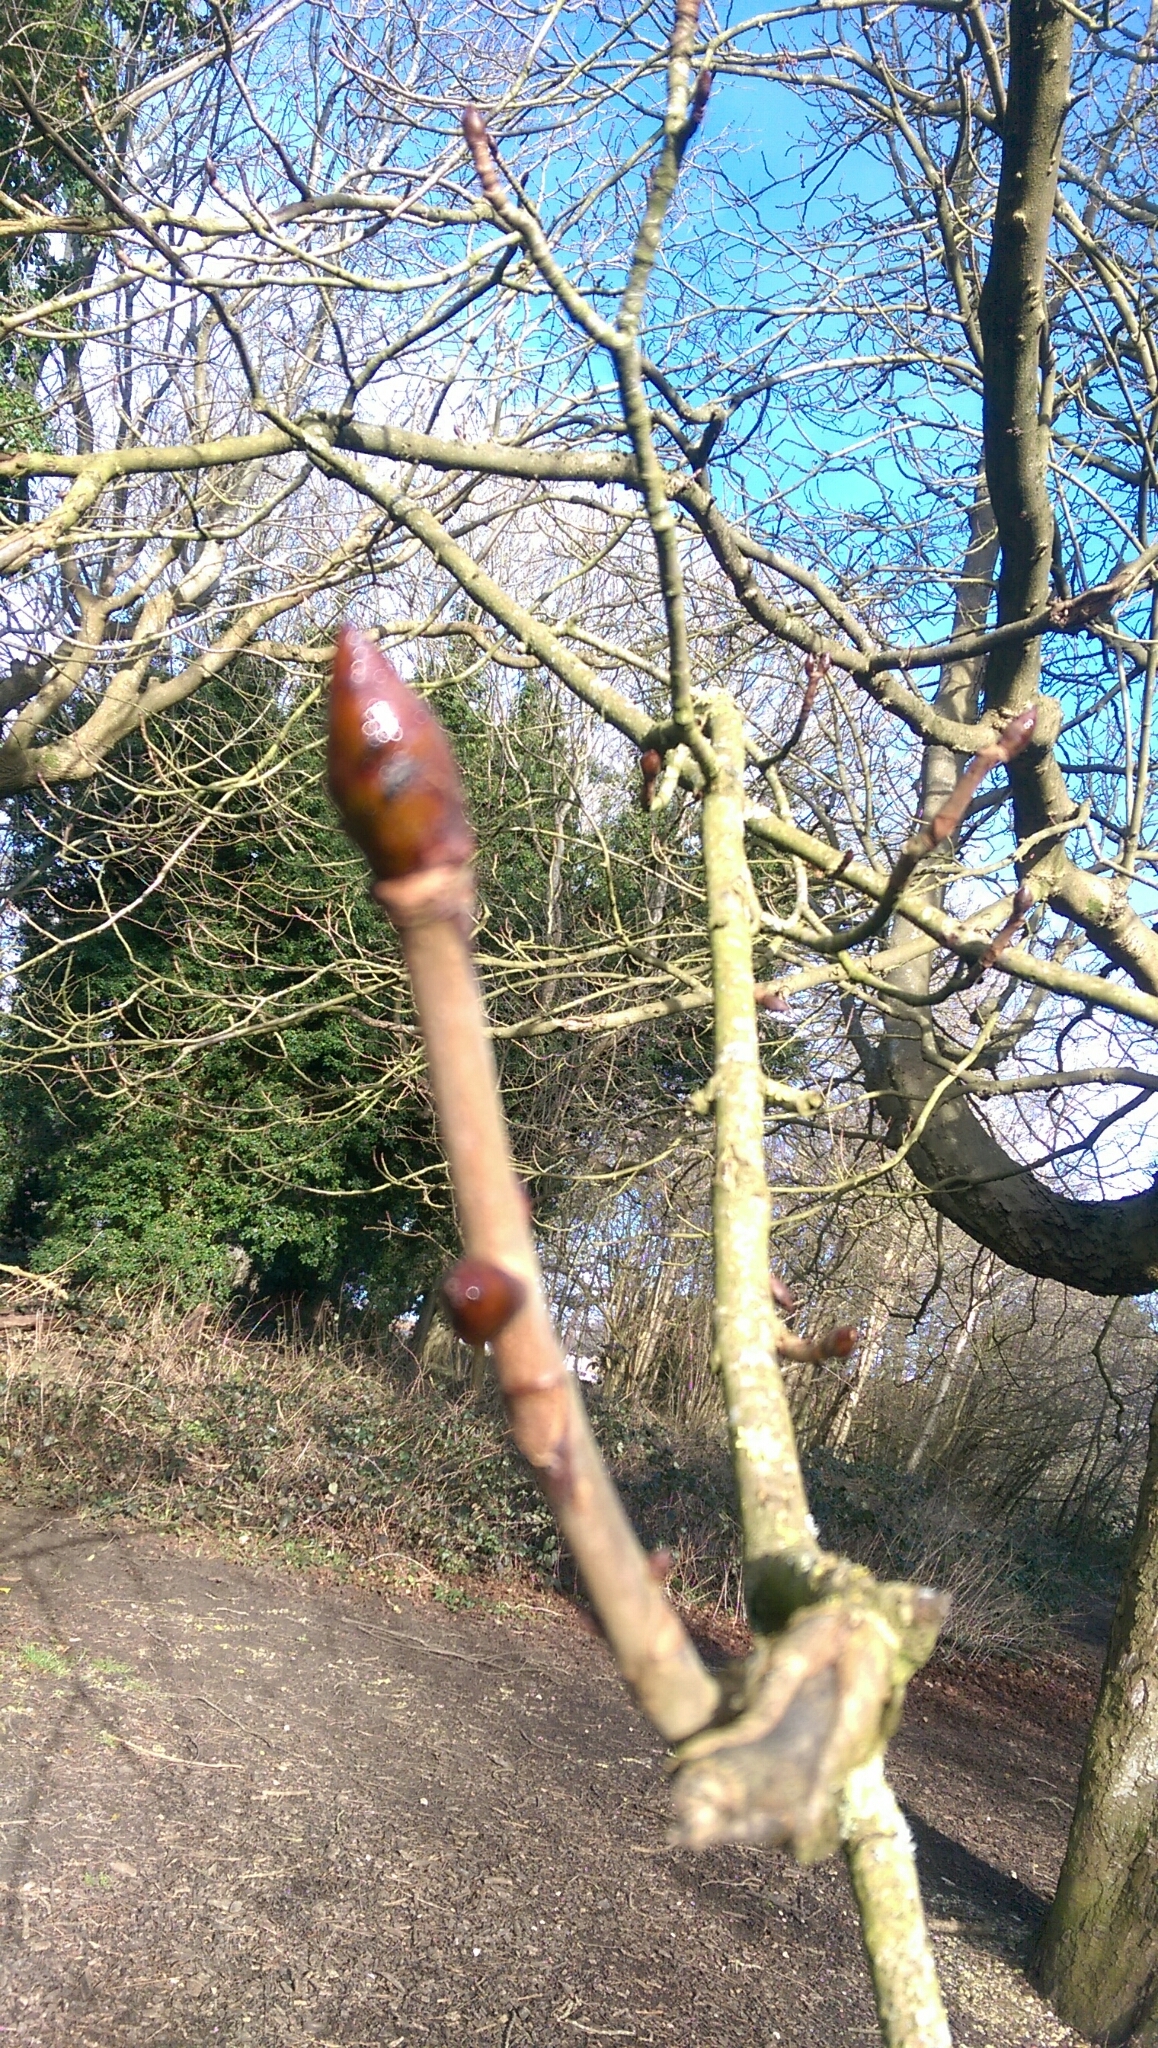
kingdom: Plantae
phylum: Tracheophyta
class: Magnoliopsida
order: Sapindales
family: Sapindaceae
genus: Aesculus
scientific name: Aesculus hippocastanum
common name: Horse-chestnut
